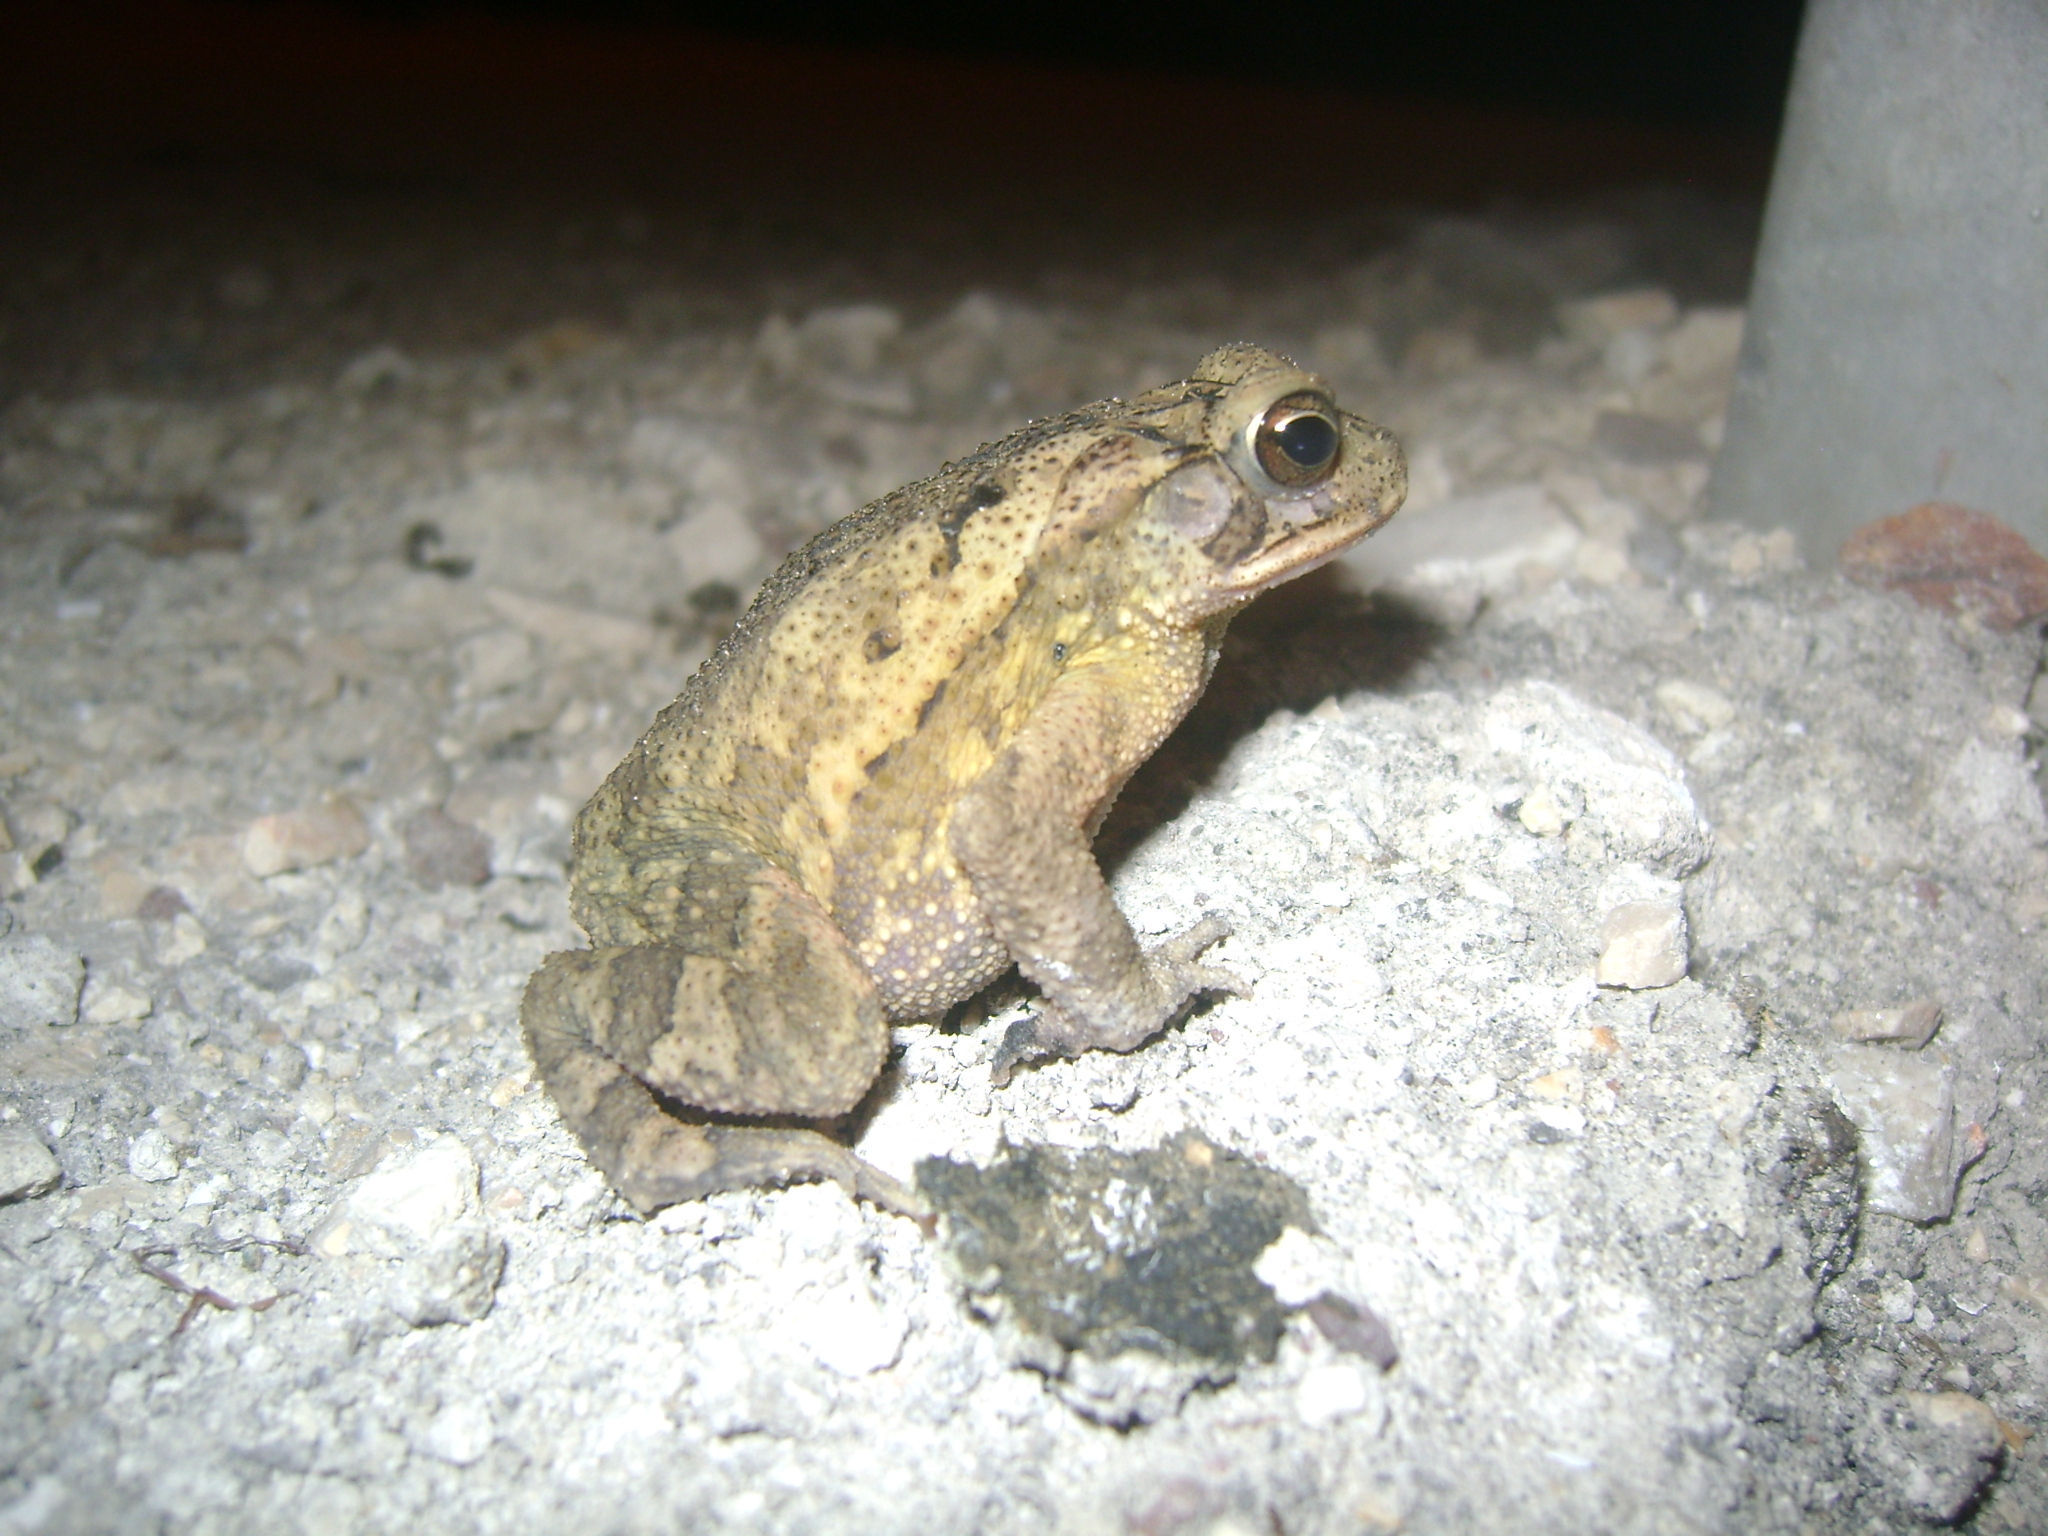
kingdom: Animalia
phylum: Chordata
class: Amphibia
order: Anura
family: Bufonidae
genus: Incilius
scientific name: Incilius valliceps
